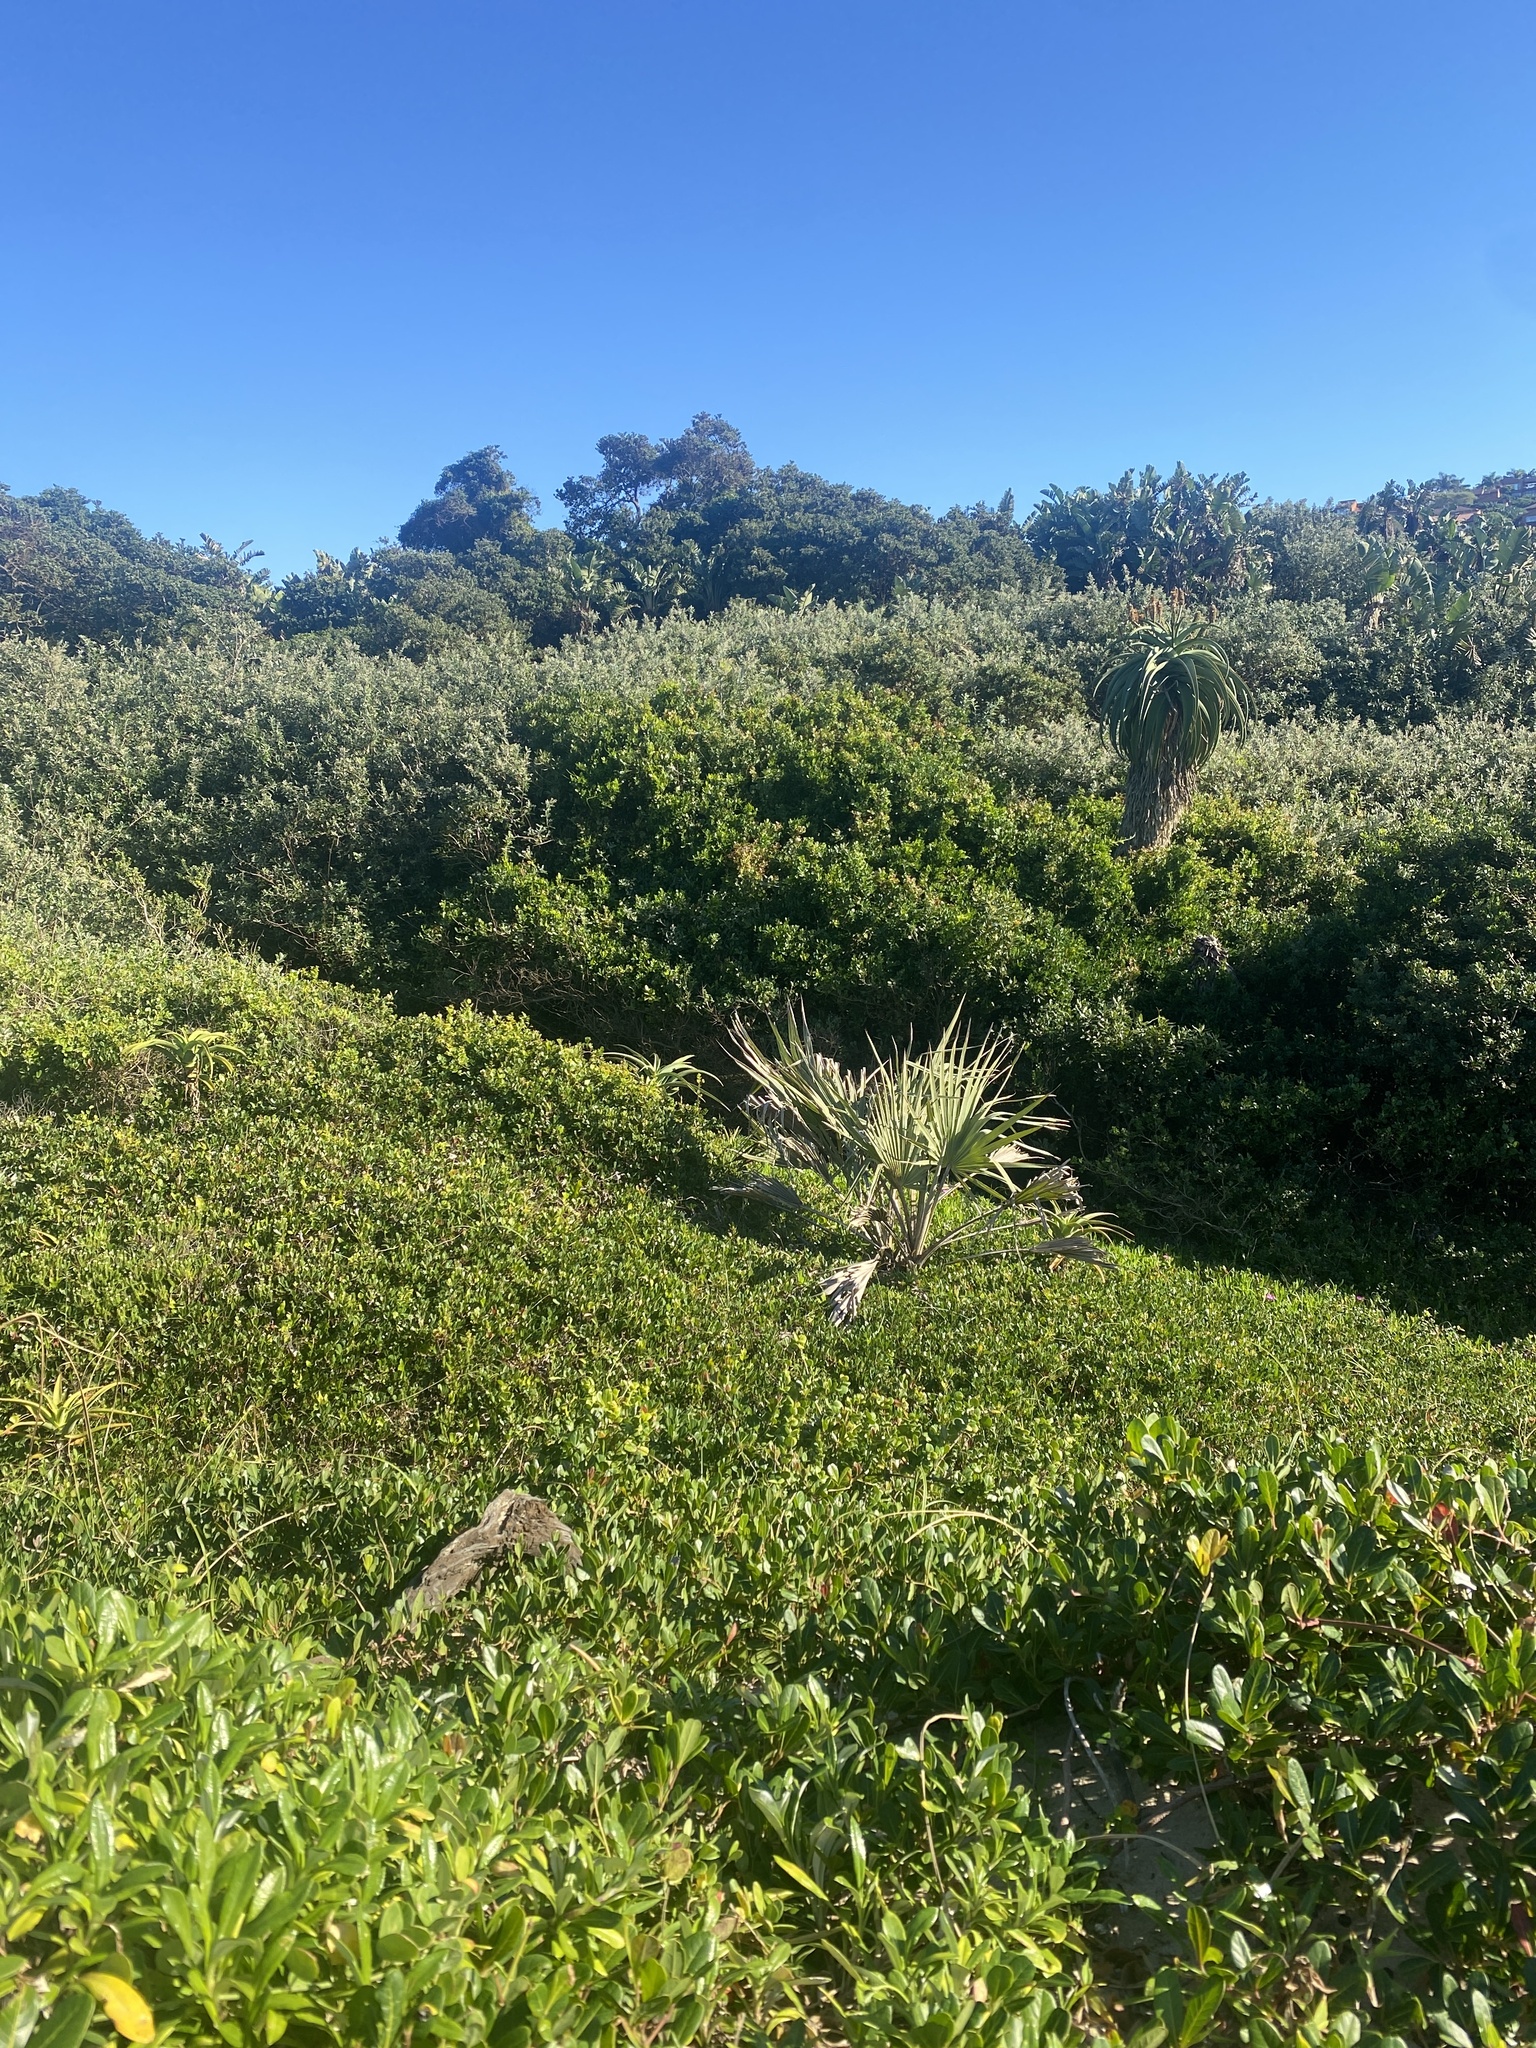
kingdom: Plantae
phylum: Tracheophyta
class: Liliopsida
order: Arecales
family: Arecaceae
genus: Hyphaene
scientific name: Hyphaene coriacea
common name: Ilala palm
